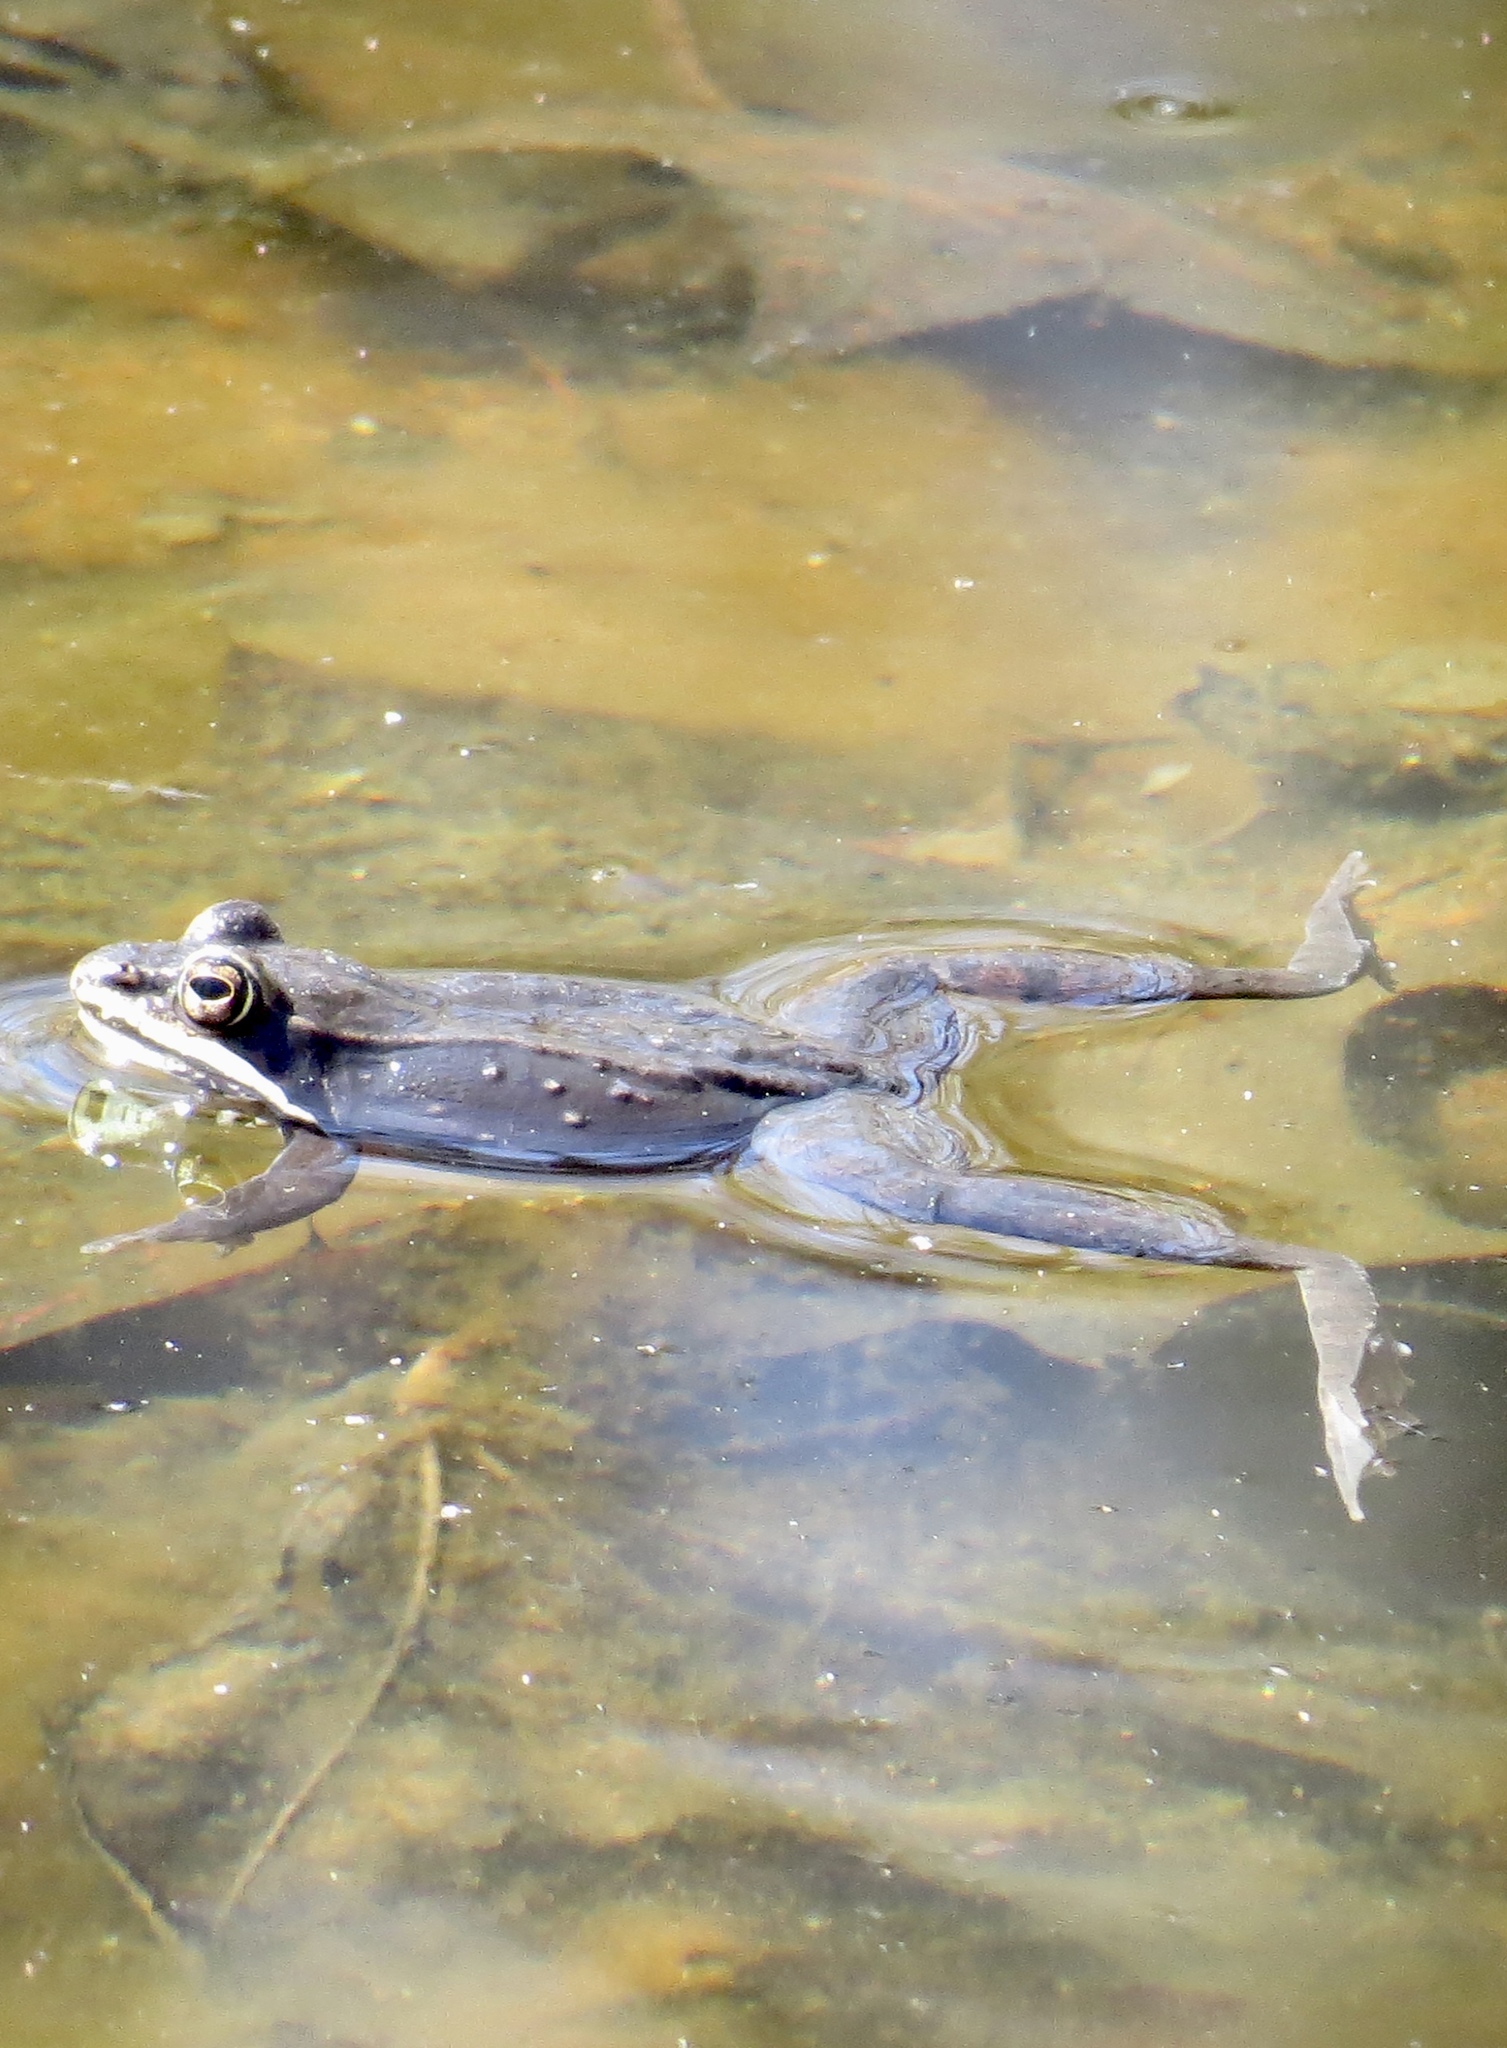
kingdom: Animalia
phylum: Chordata
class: Amphibia
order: Anura
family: Ranidae
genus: Lithobates
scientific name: Lithobates sylvaticus
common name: Wood frog
